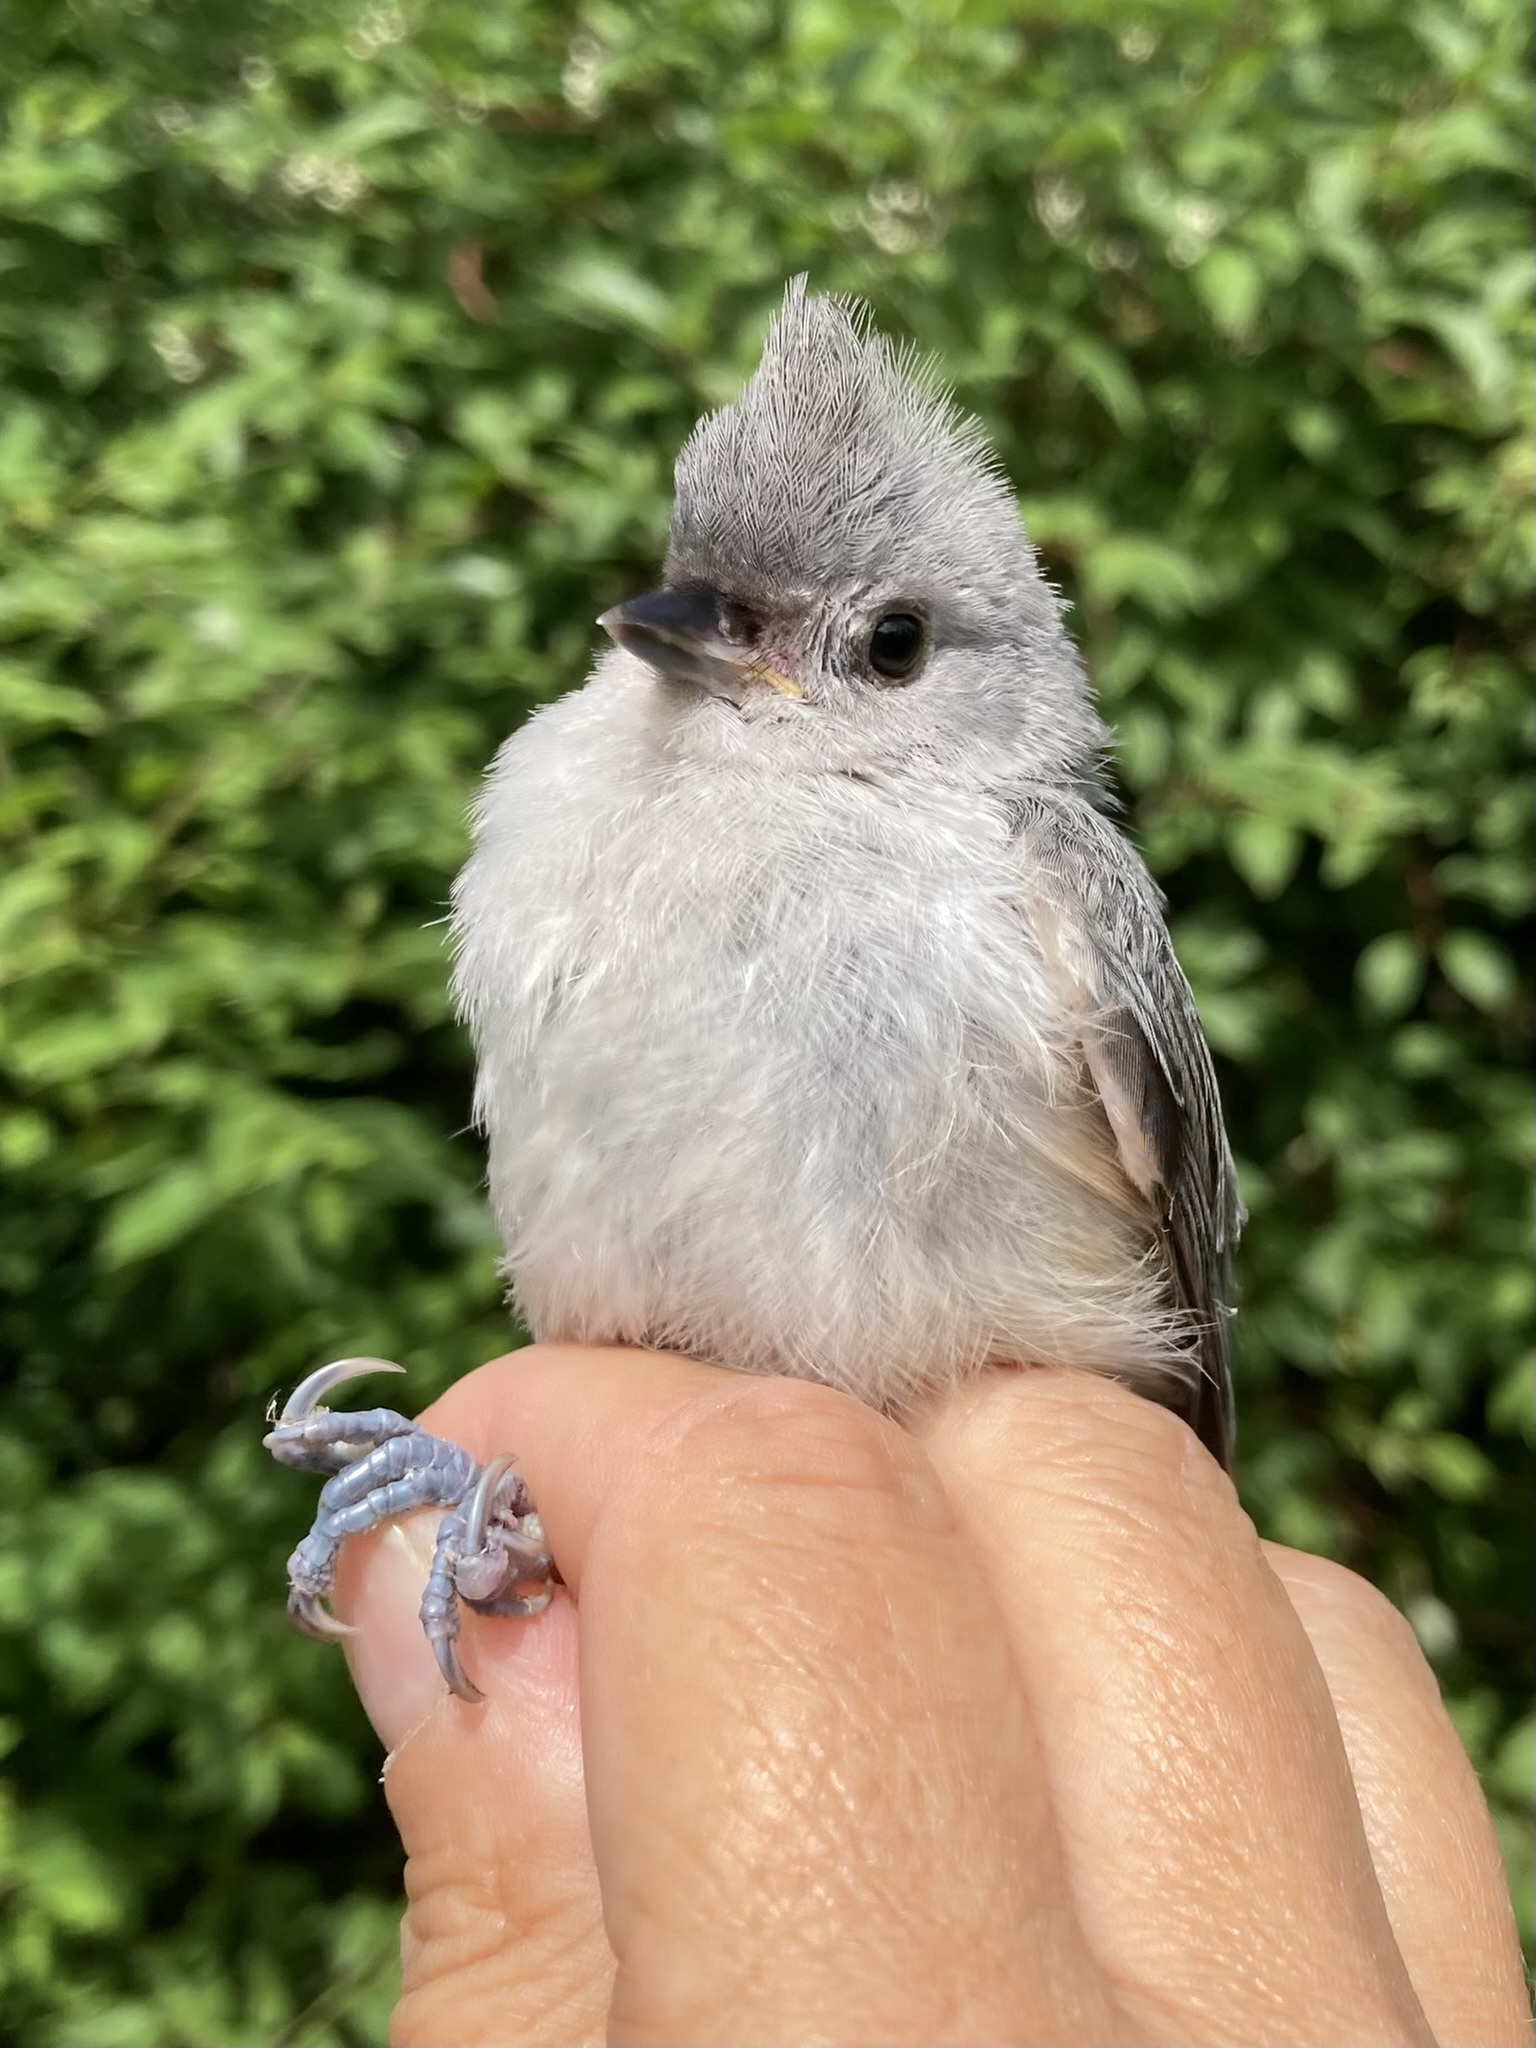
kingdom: Animalia
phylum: Chordata
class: Aves
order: Passeriformes
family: Paridae
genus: Baeolophus
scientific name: Baeolophus bicolor
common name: Tufted titmouse
